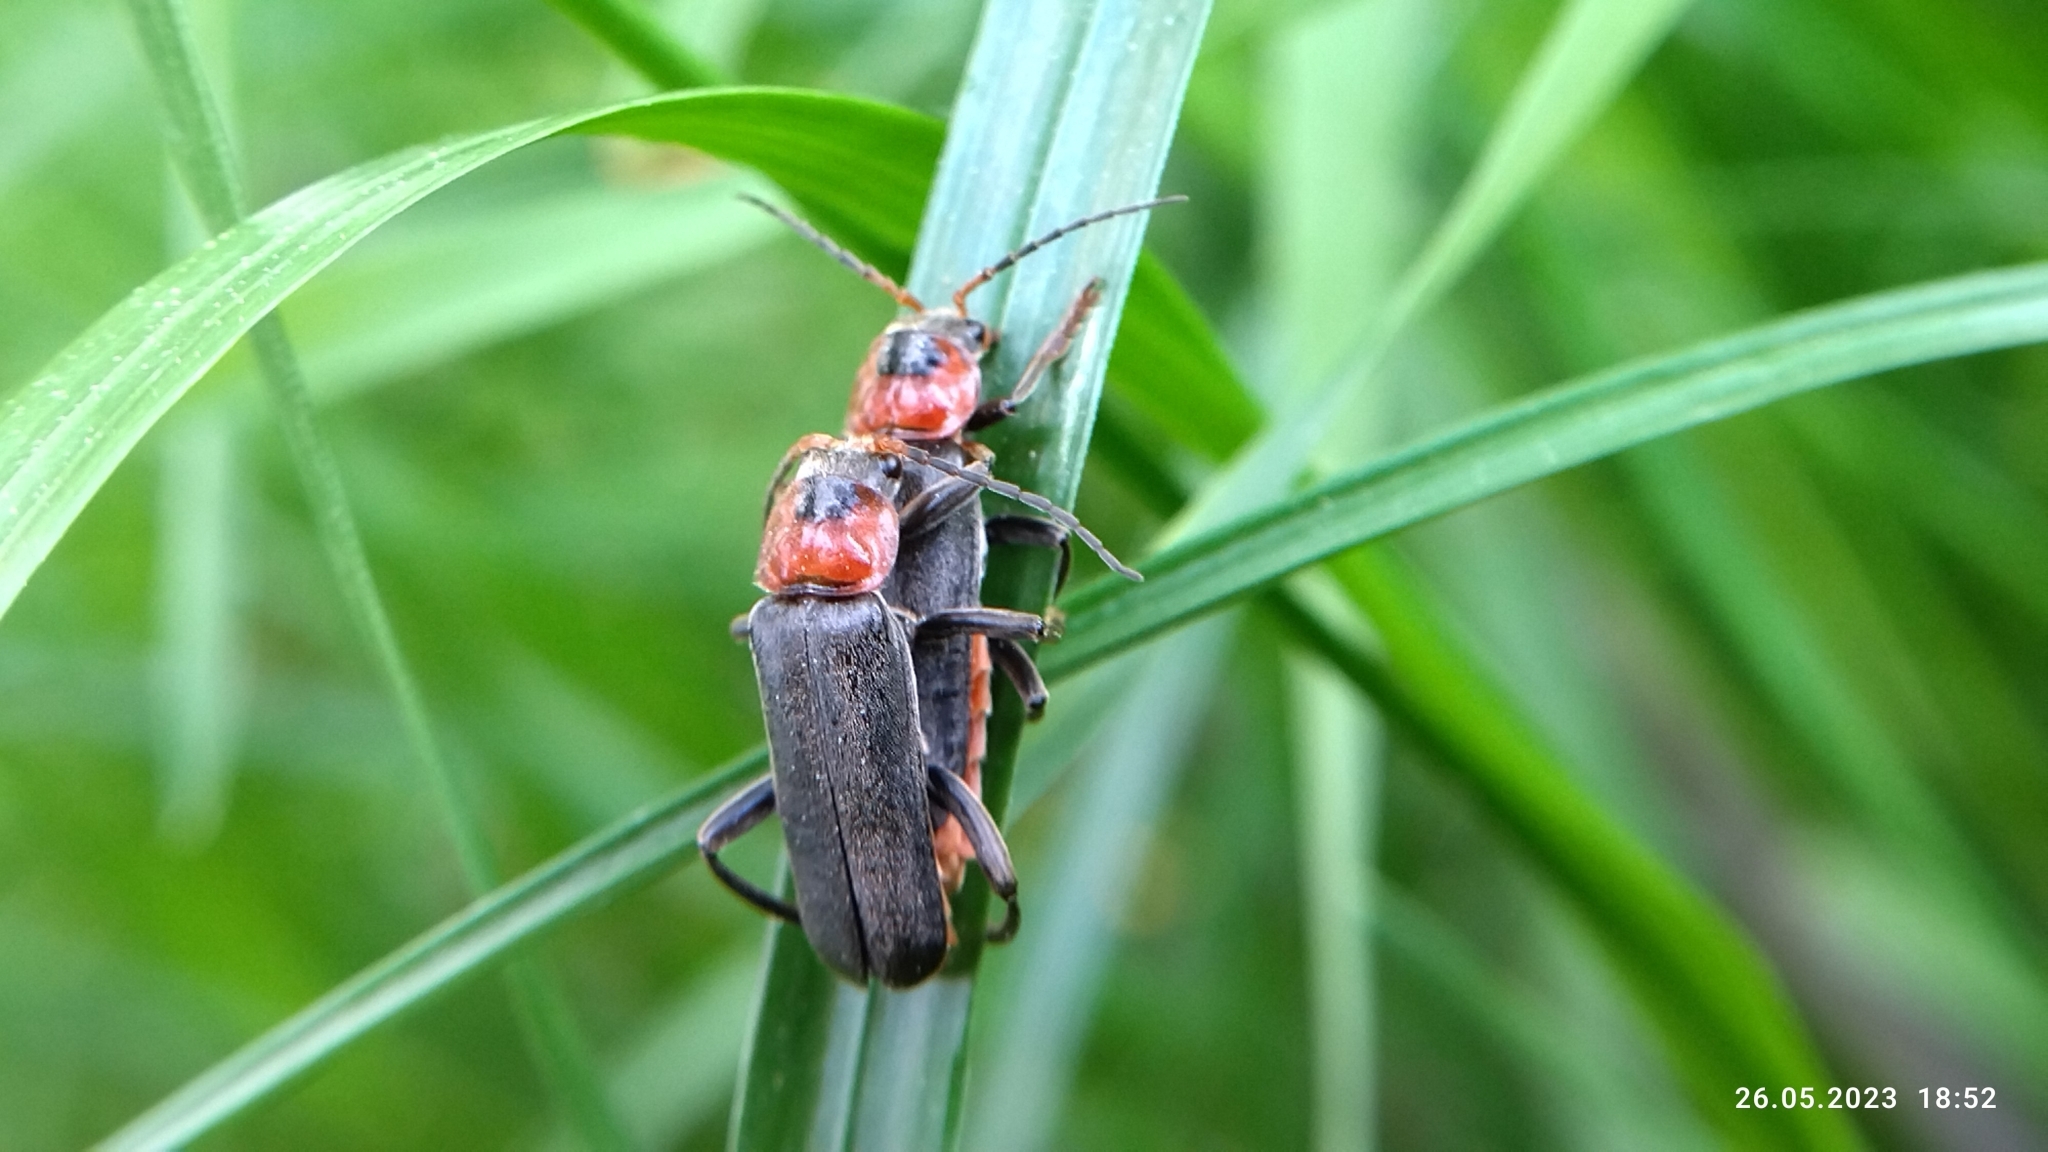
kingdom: Animalia
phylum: Arthropoda
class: Insecta
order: Coleoptera
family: Cantharidae
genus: Cantharis
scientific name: Cantharis fusca
